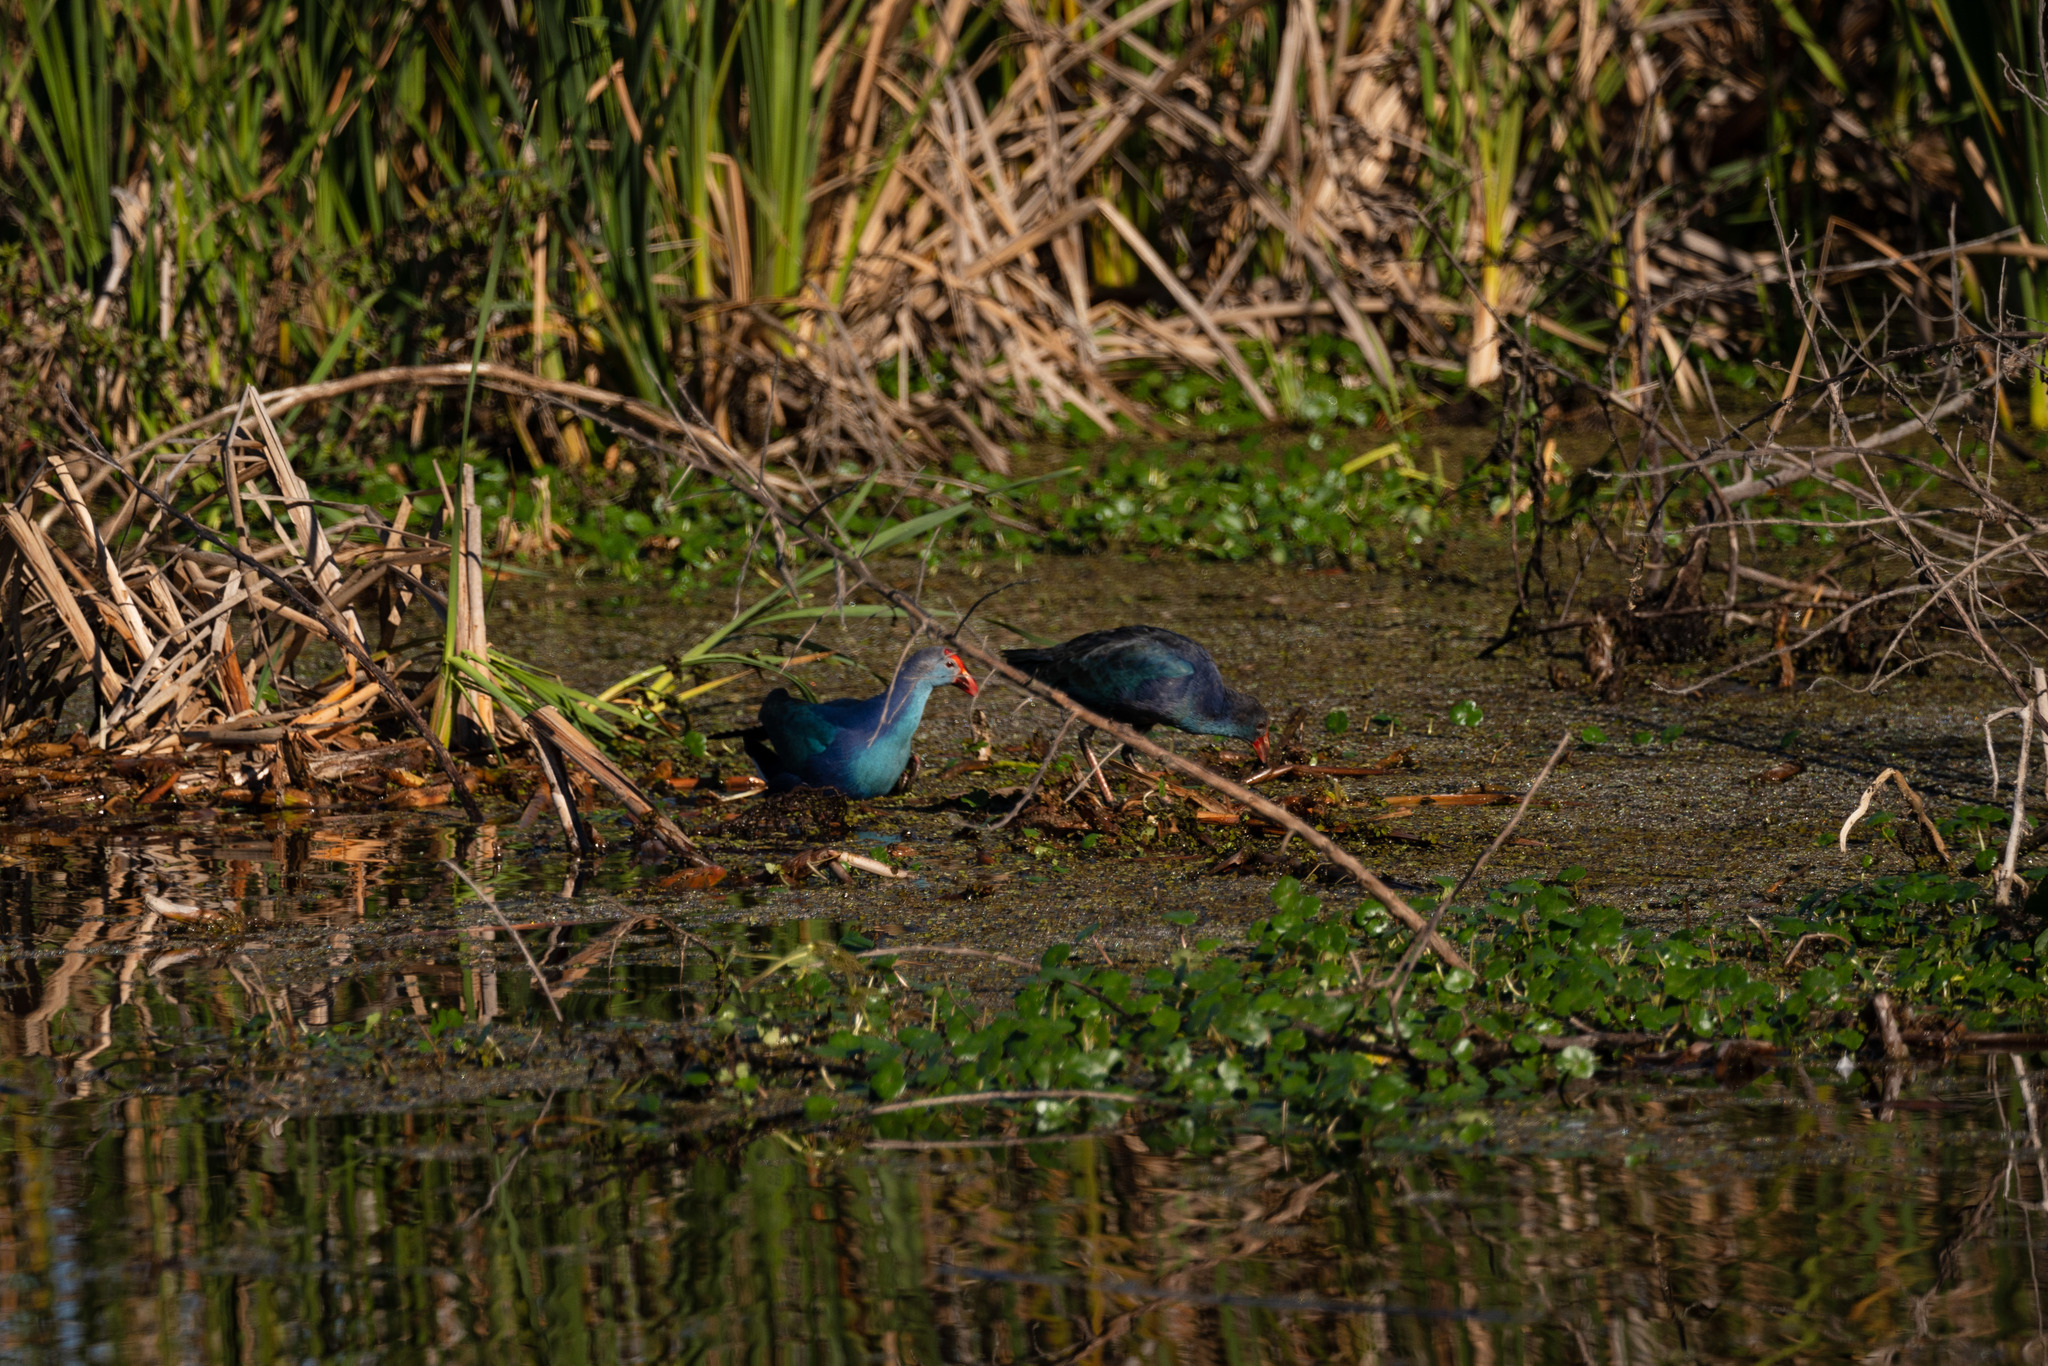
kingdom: Animalia
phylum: Chordata
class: Aves
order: Gruiformes
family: Rallidae
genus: Porphyrio
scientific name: Porphyrio porphyrio
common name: Purple swamphen
